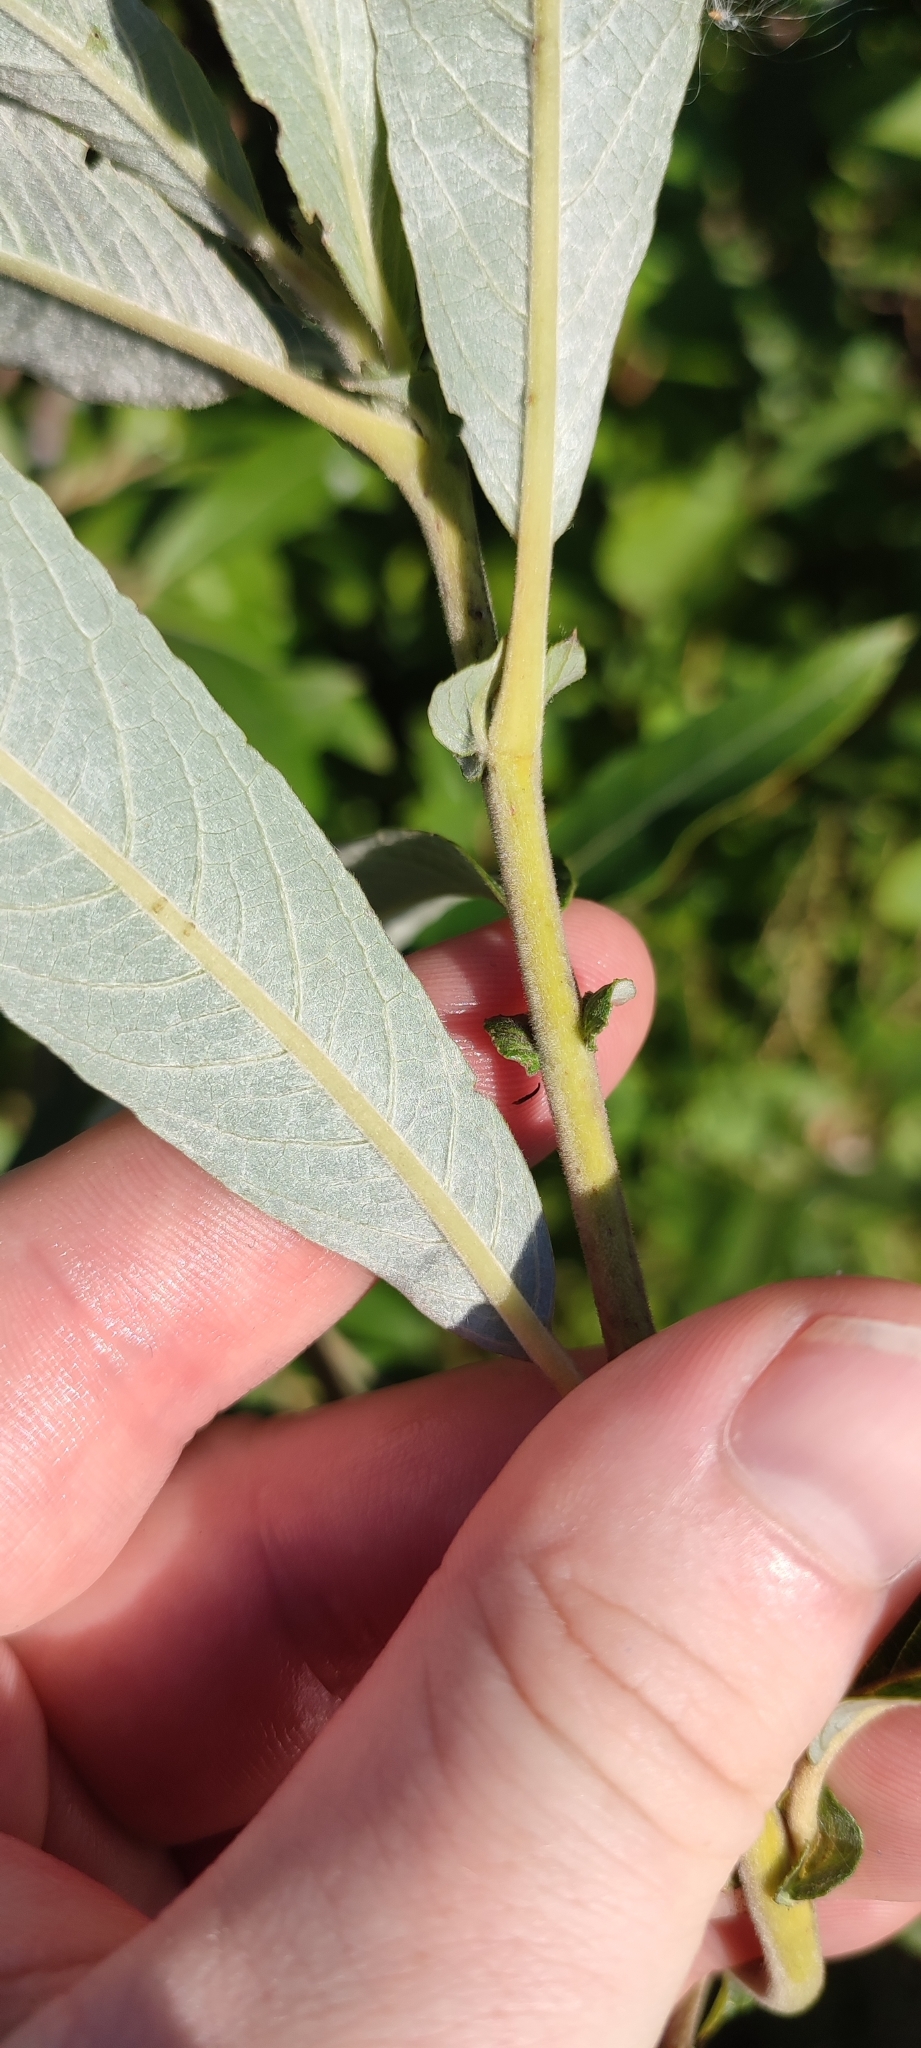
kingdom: Plantae
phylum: Tracheophyta
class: Magnoliopsida
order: Malpighiales
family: Salicaceae
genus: Salix
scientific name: Salix gmelinii
